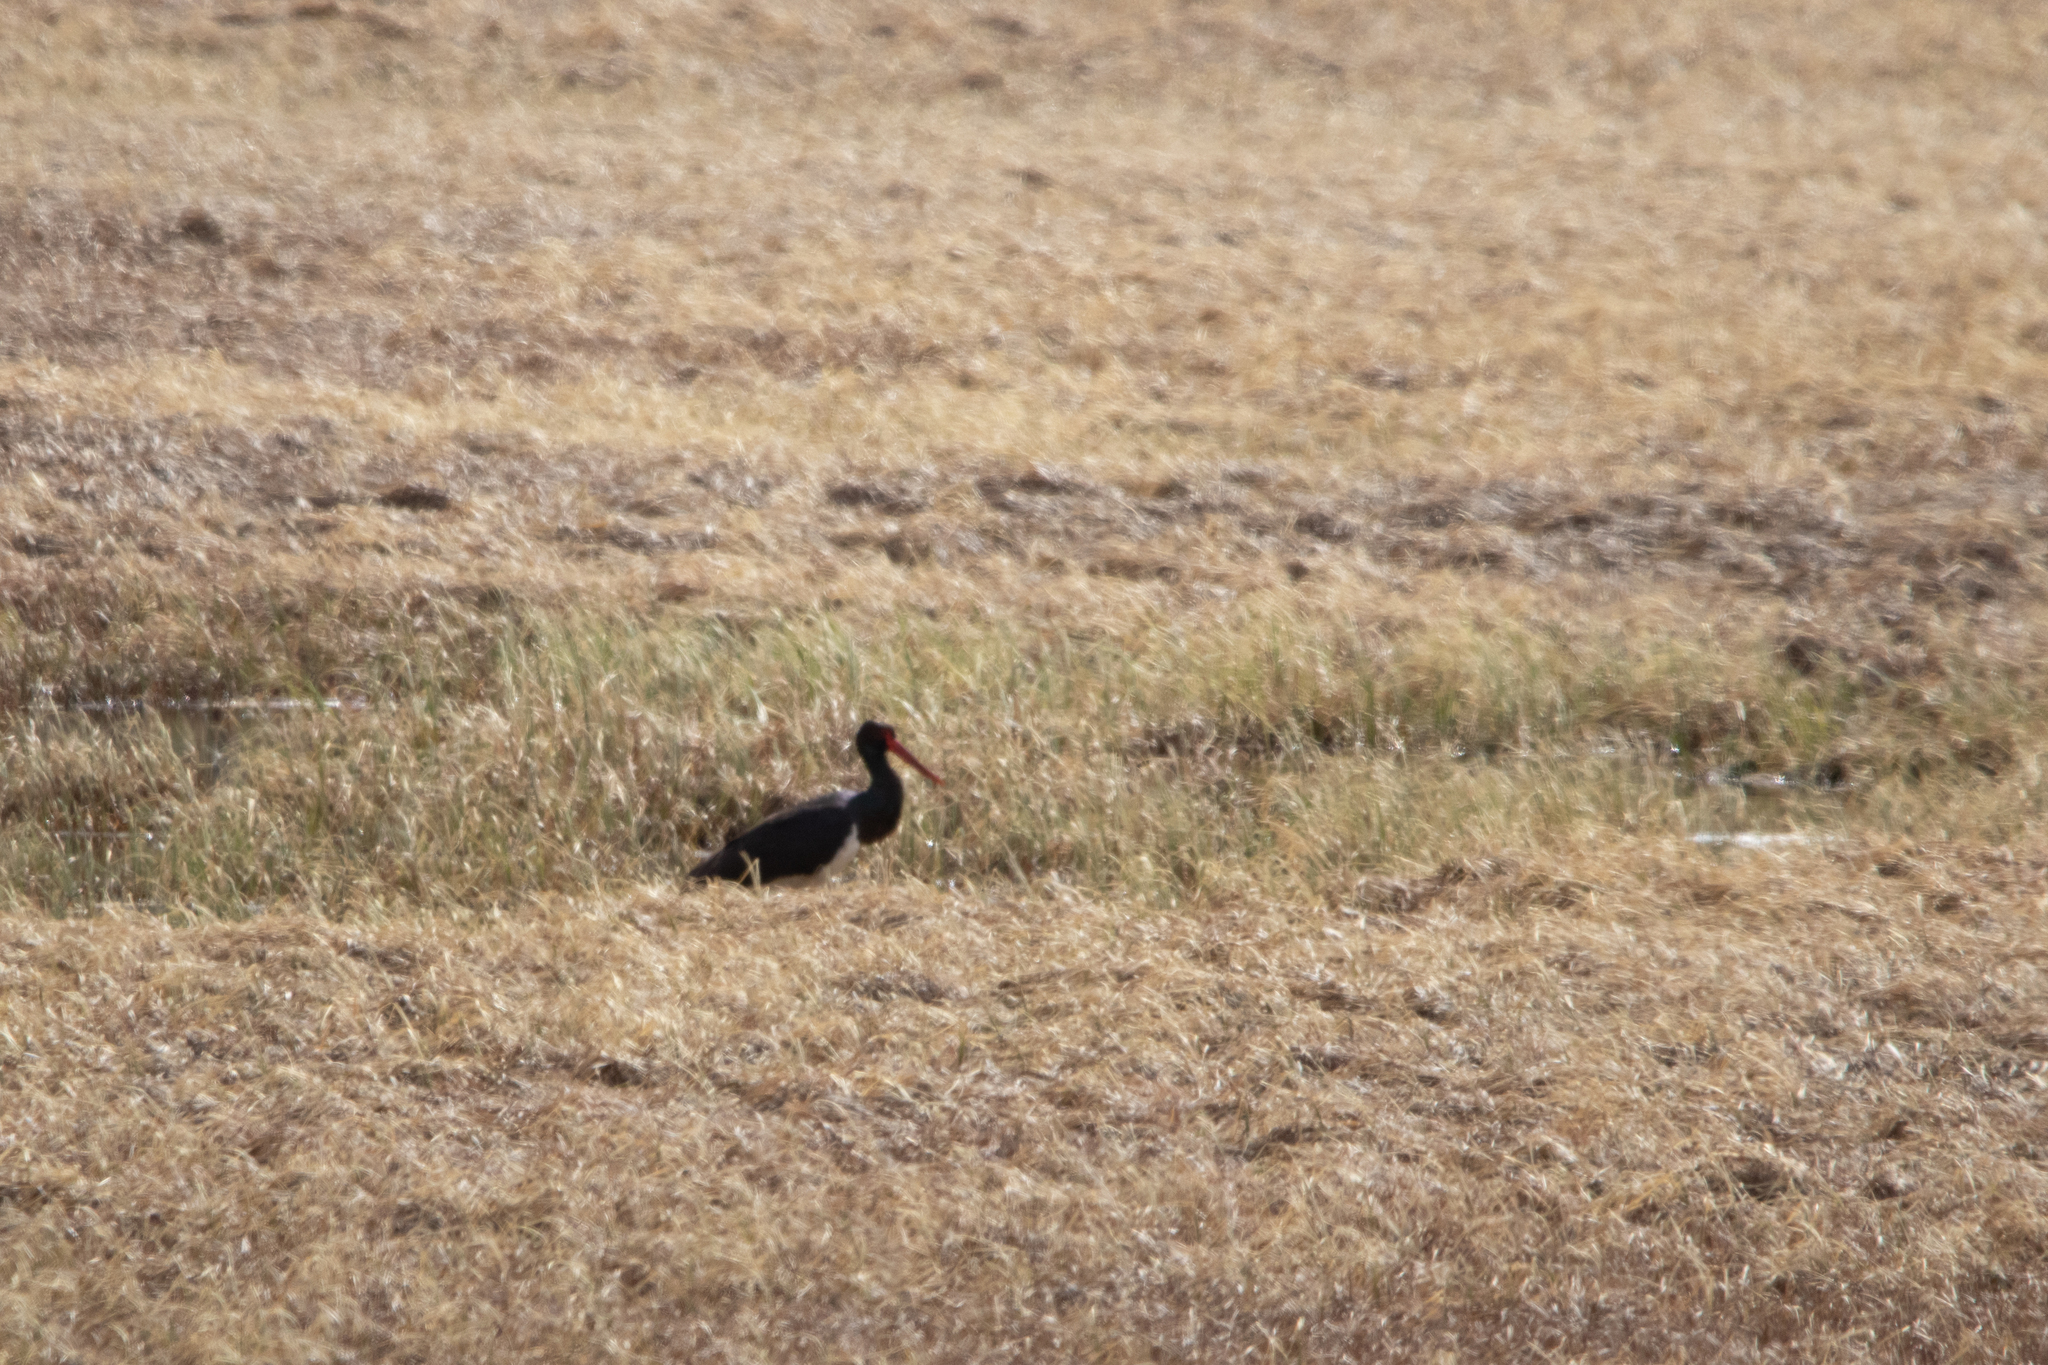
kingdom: Animalia
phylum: Chordata
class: Aves
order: Ciconiiformes
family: Ciconiidae
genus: Ciconia
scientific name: Ciconia nigra
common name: Black stork
